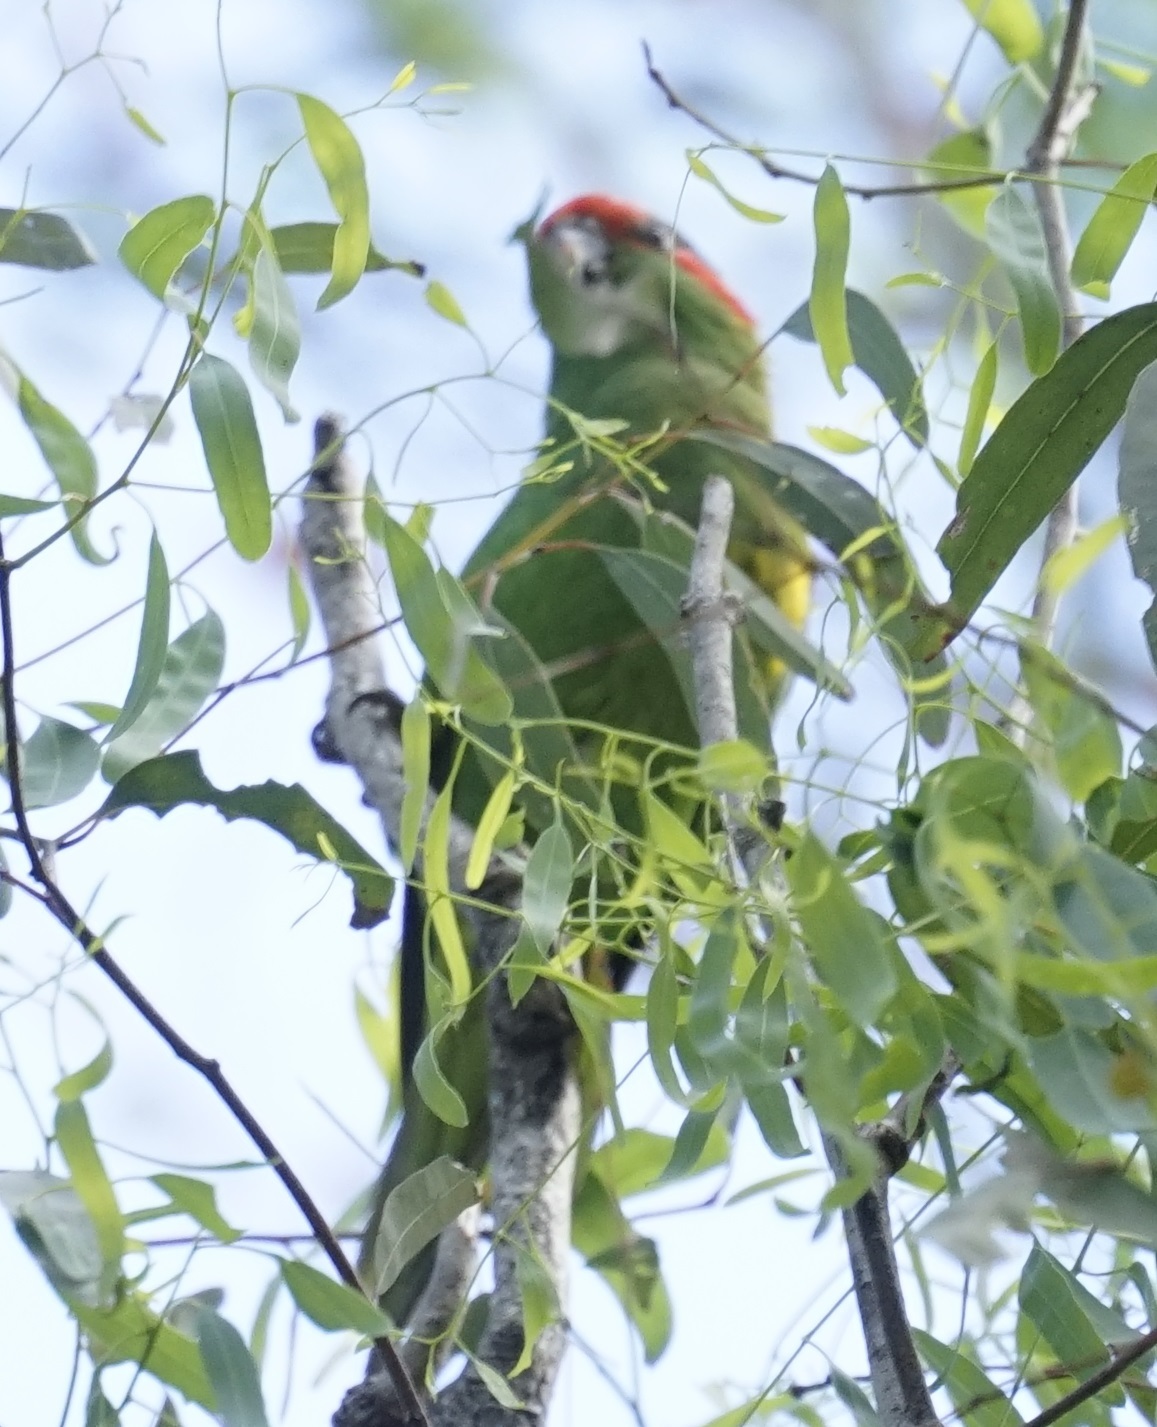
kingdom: Animalia
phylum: Chordata
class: Aves
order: Psittaciformes
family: Psittacidae
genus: Glossopsitta
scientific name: Glossopsitta concinna
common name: Musk lorikeet
